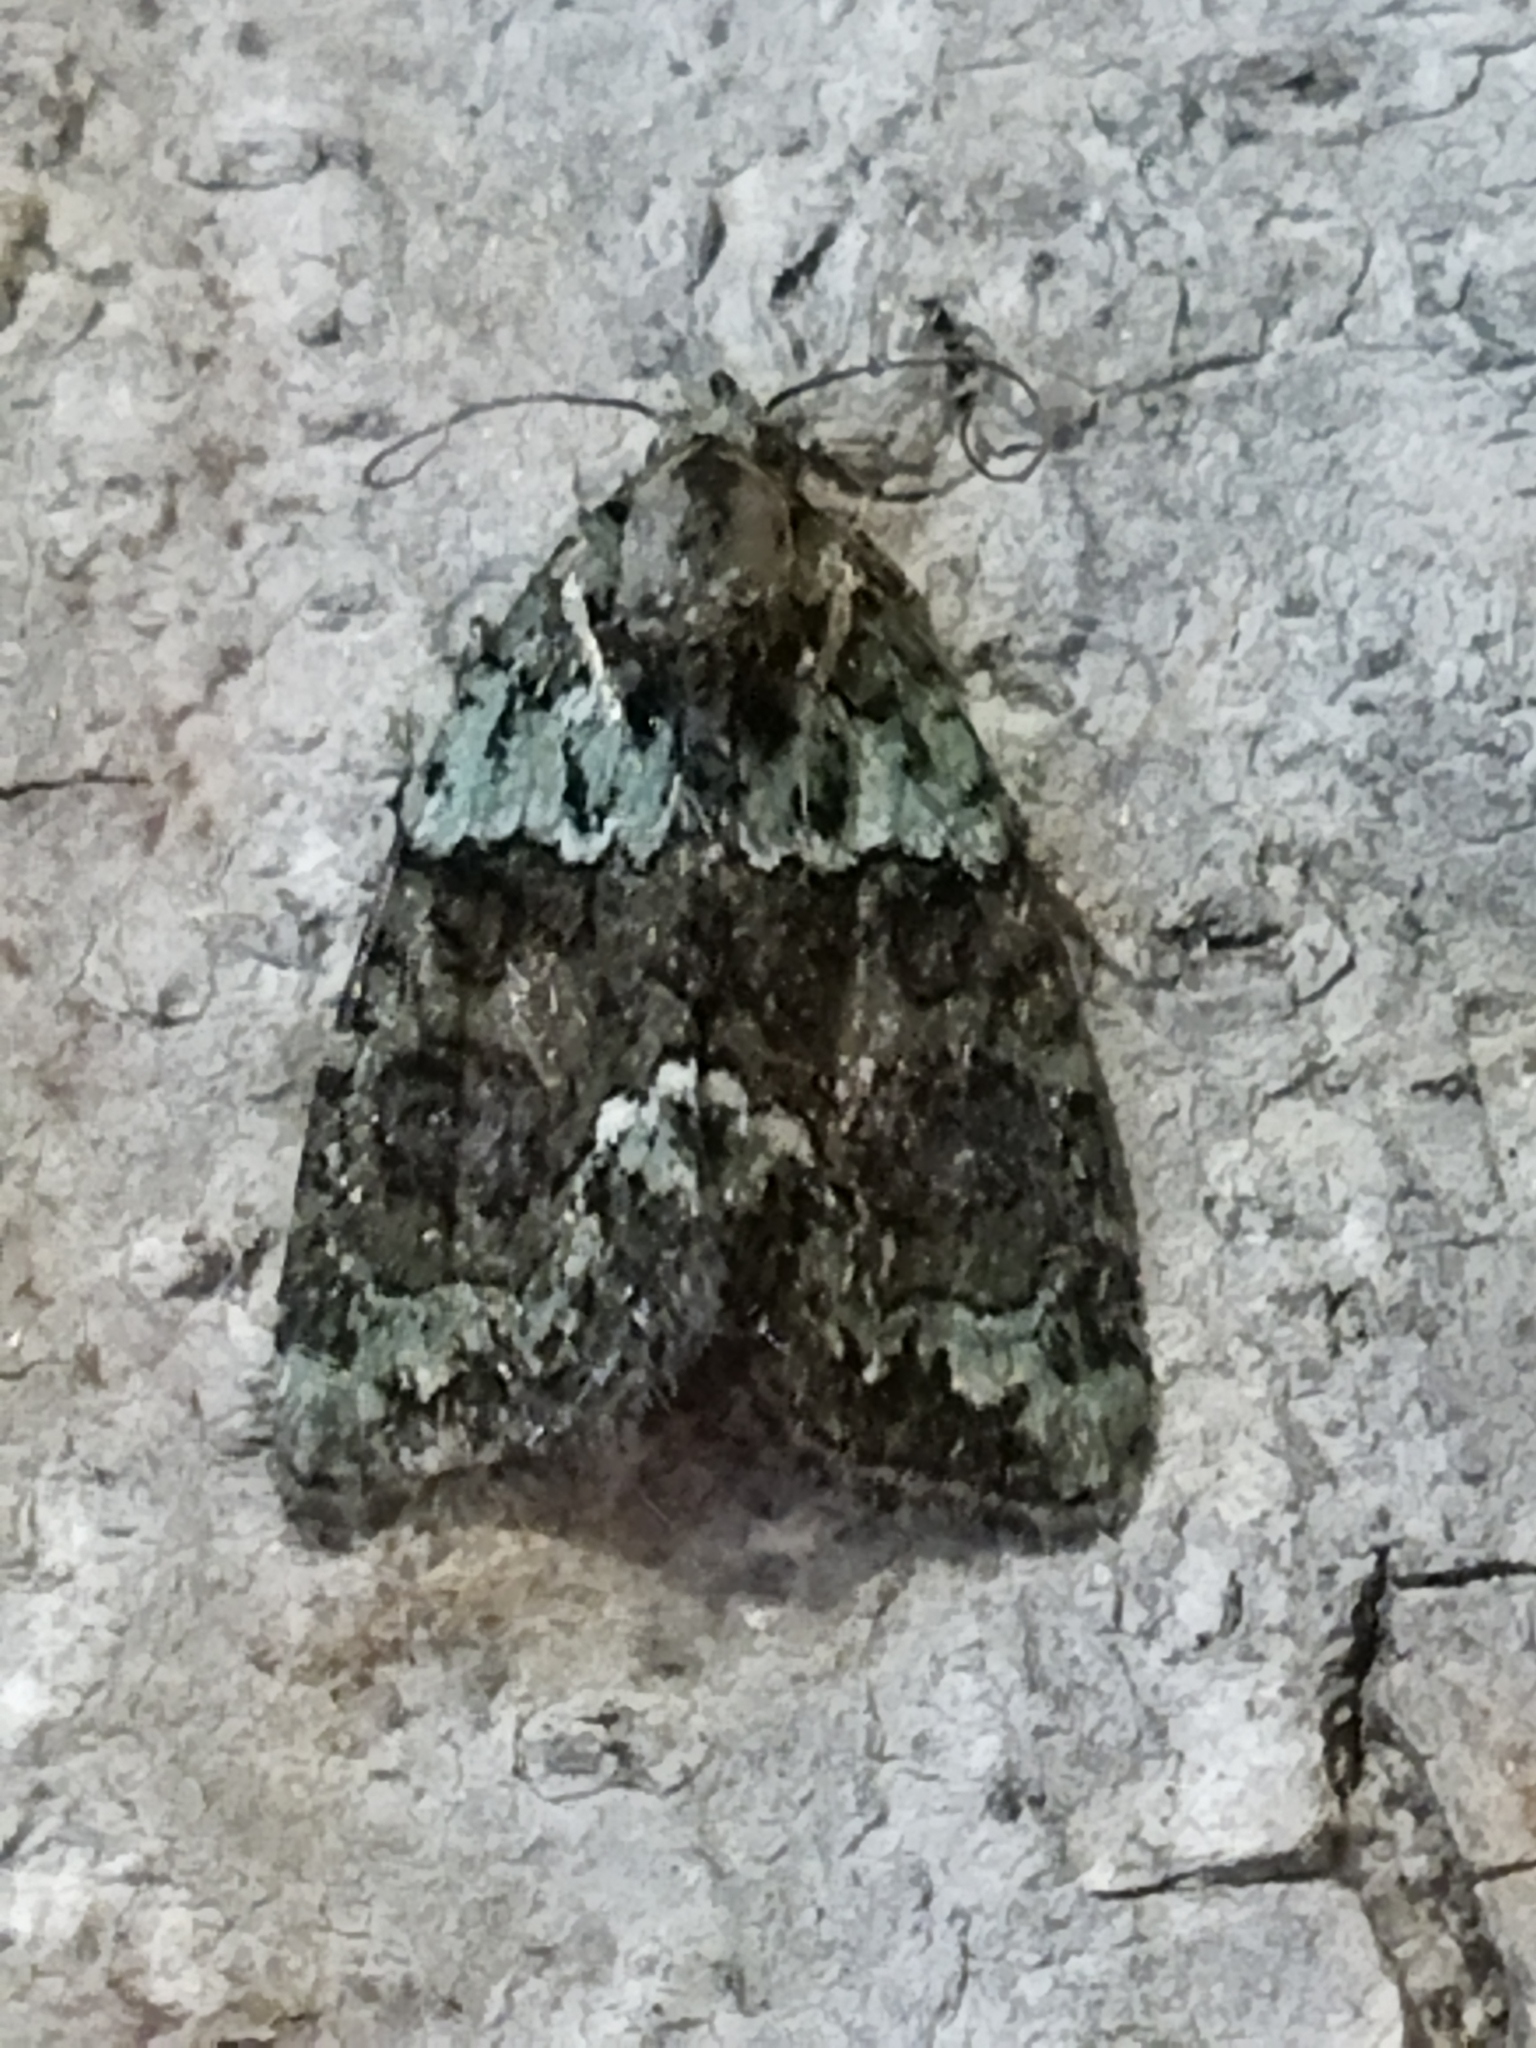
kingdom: Animalia
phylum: Arthropoda
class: Insecta
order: Lepidoptera
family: Noctuidae
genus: Cryphia
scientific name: Cryphia
